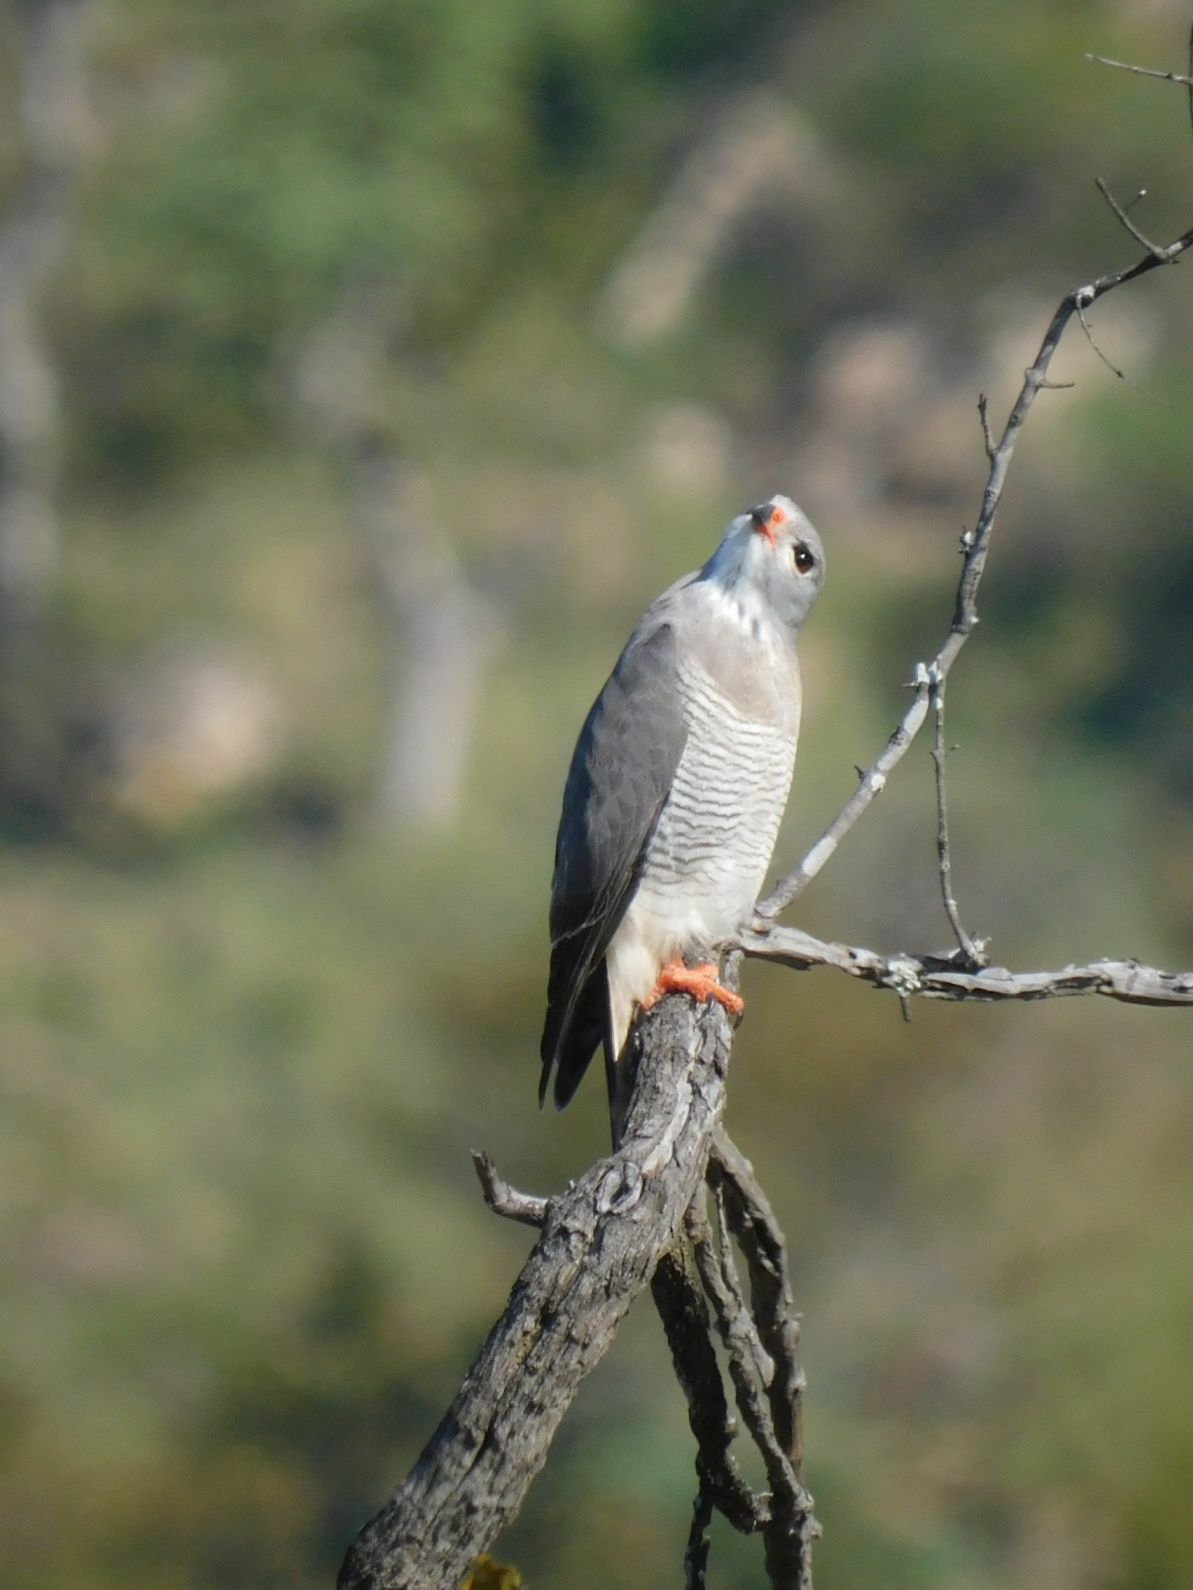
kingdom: Animalia
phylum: Chordata
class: Aves
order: Accipitriformes
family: Accipitridae
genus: Kaupifalco
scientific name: Kaupifalco monogrammicus
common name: Lizard buzzard
